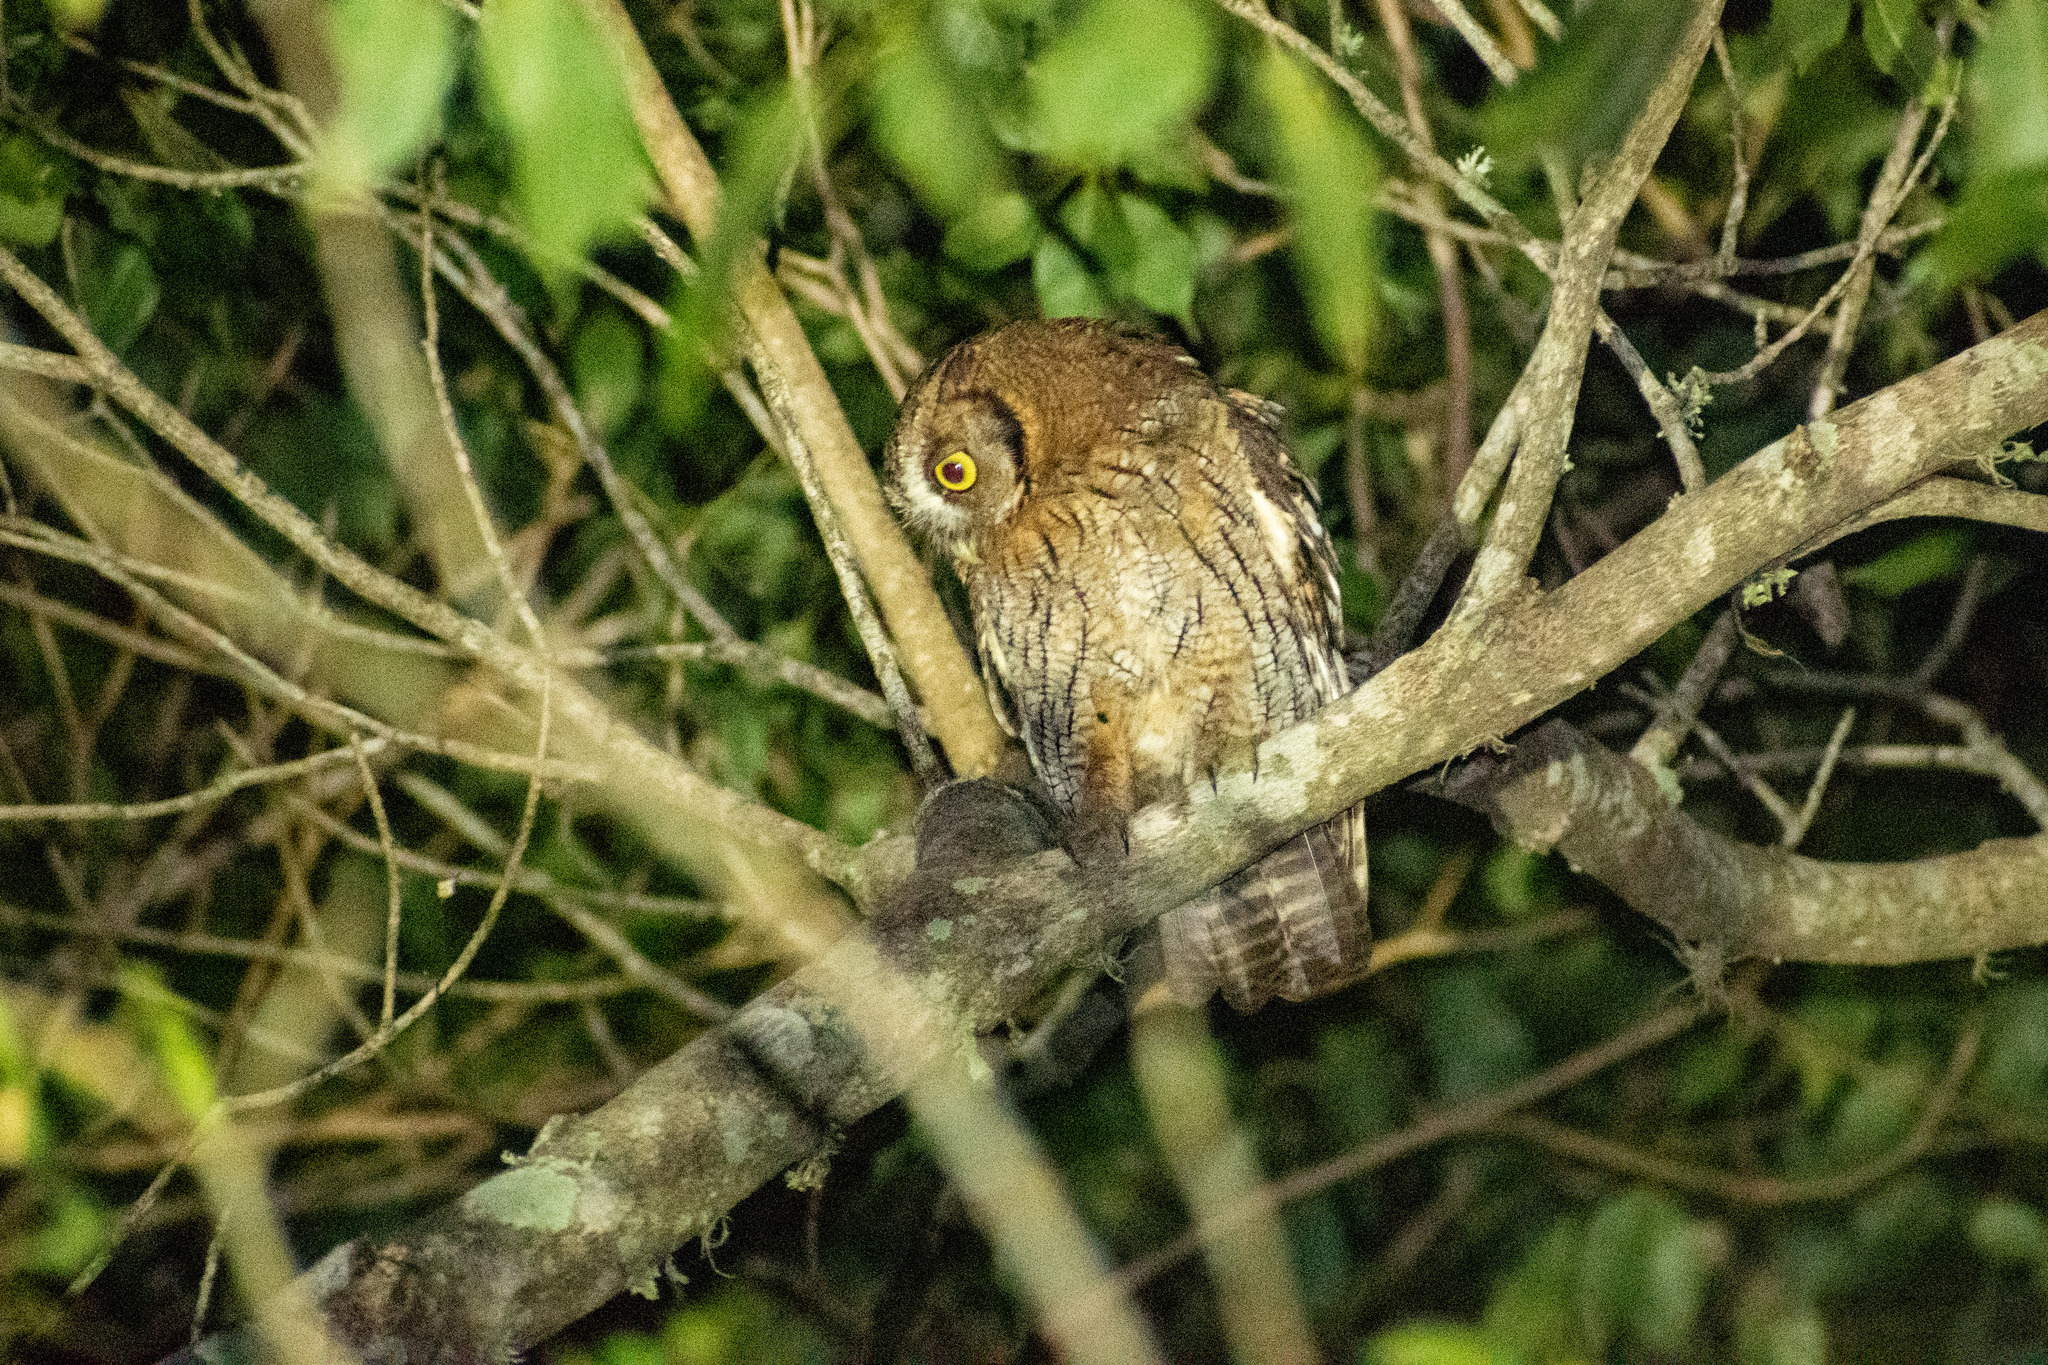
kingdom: Animalia
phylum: Chordata
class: Aves
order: Strigiformes
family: Strigidae
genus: Megascops
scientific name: Megascops choliba
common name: Tropical screech-owl
